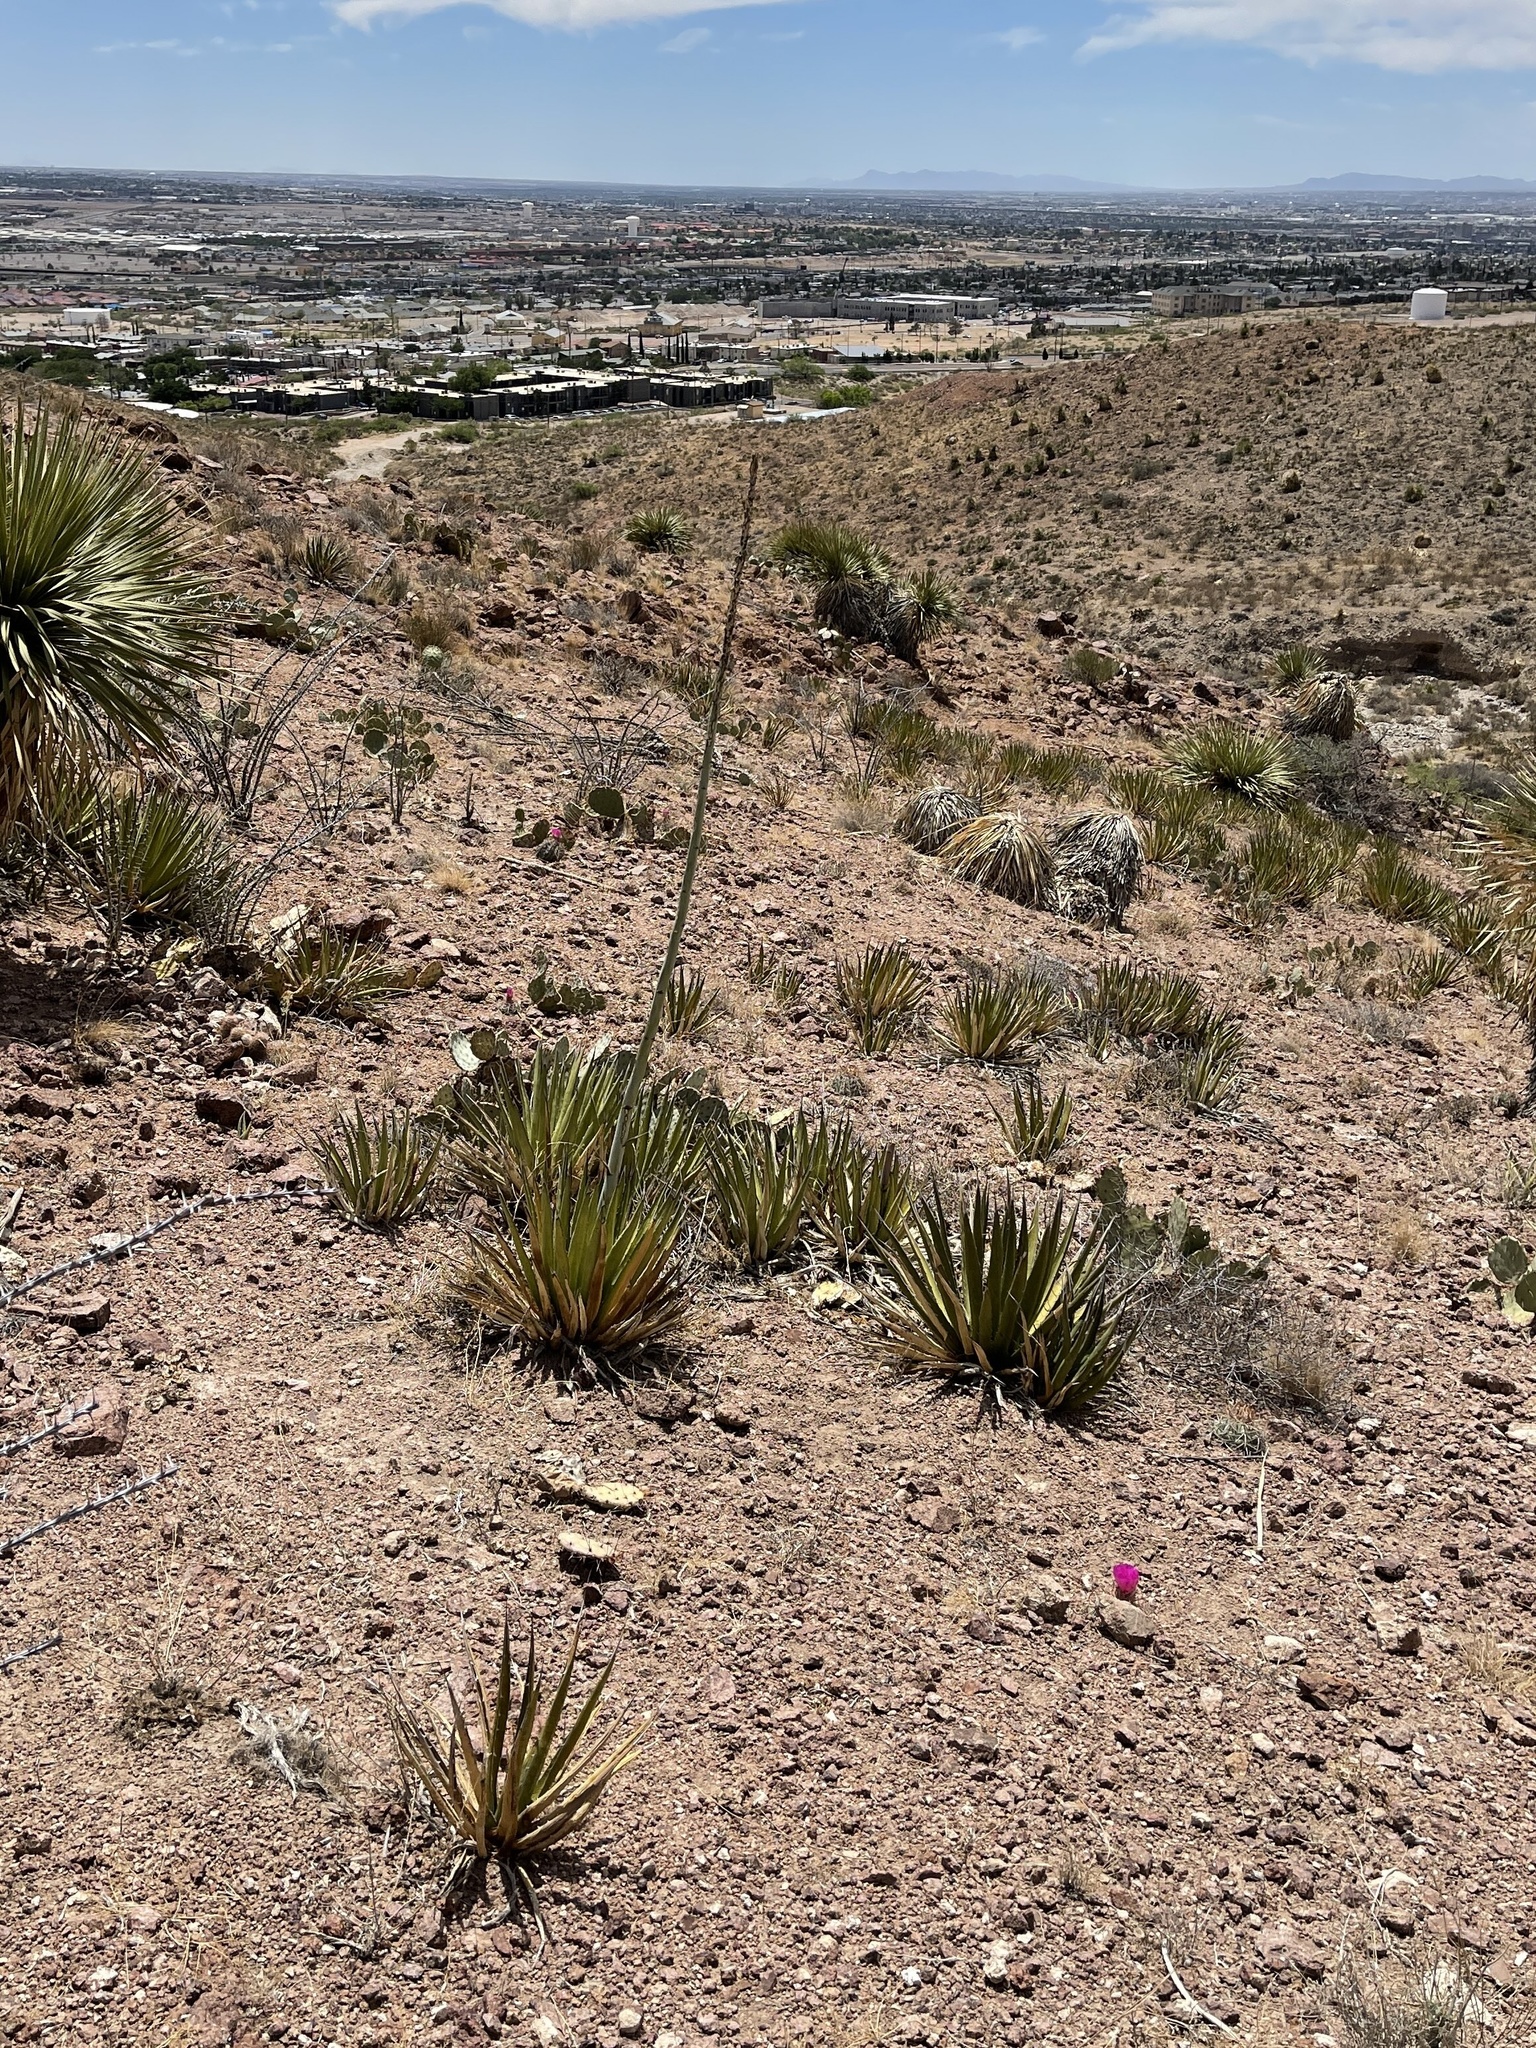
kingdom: Plantae
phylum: Tracheophyta
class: Liliopsida
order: Asparagales
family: Asparagaceae
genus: Agave
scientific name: Agave lechuguilla
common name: Lecheguilla agave
